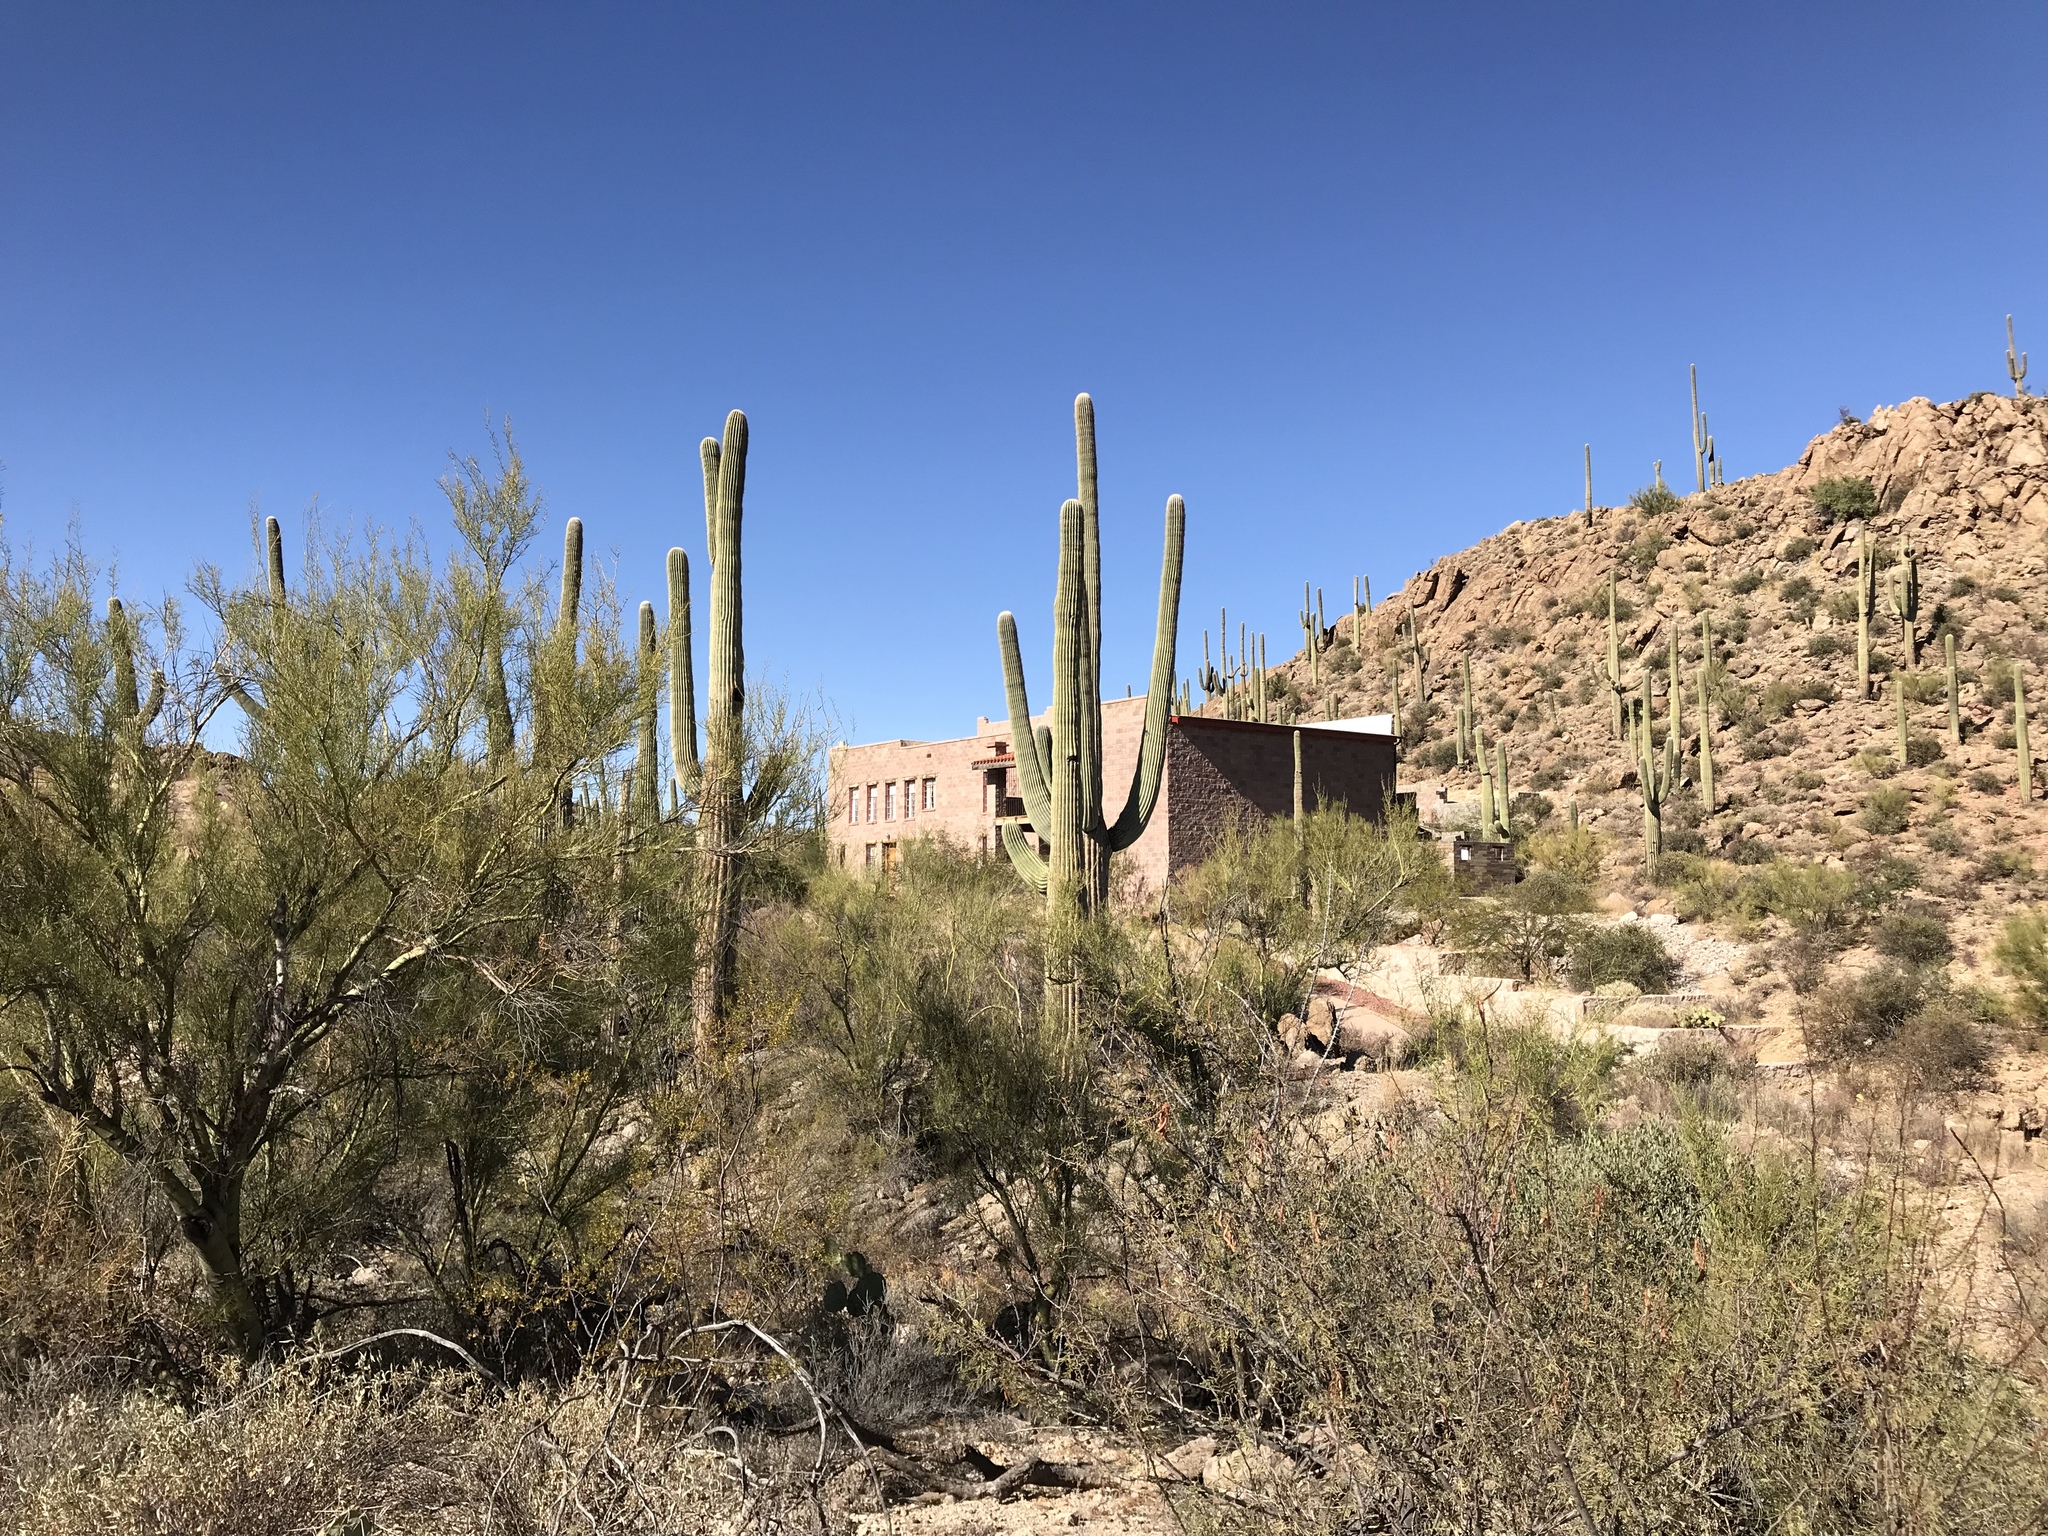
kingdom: Plantae
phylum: Tracheophyta
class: Magnoliopsida
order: Caryophyllales
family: Cactaceae
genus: Carnegiea
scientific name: Carnegiea gigantea
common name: Saguaro
